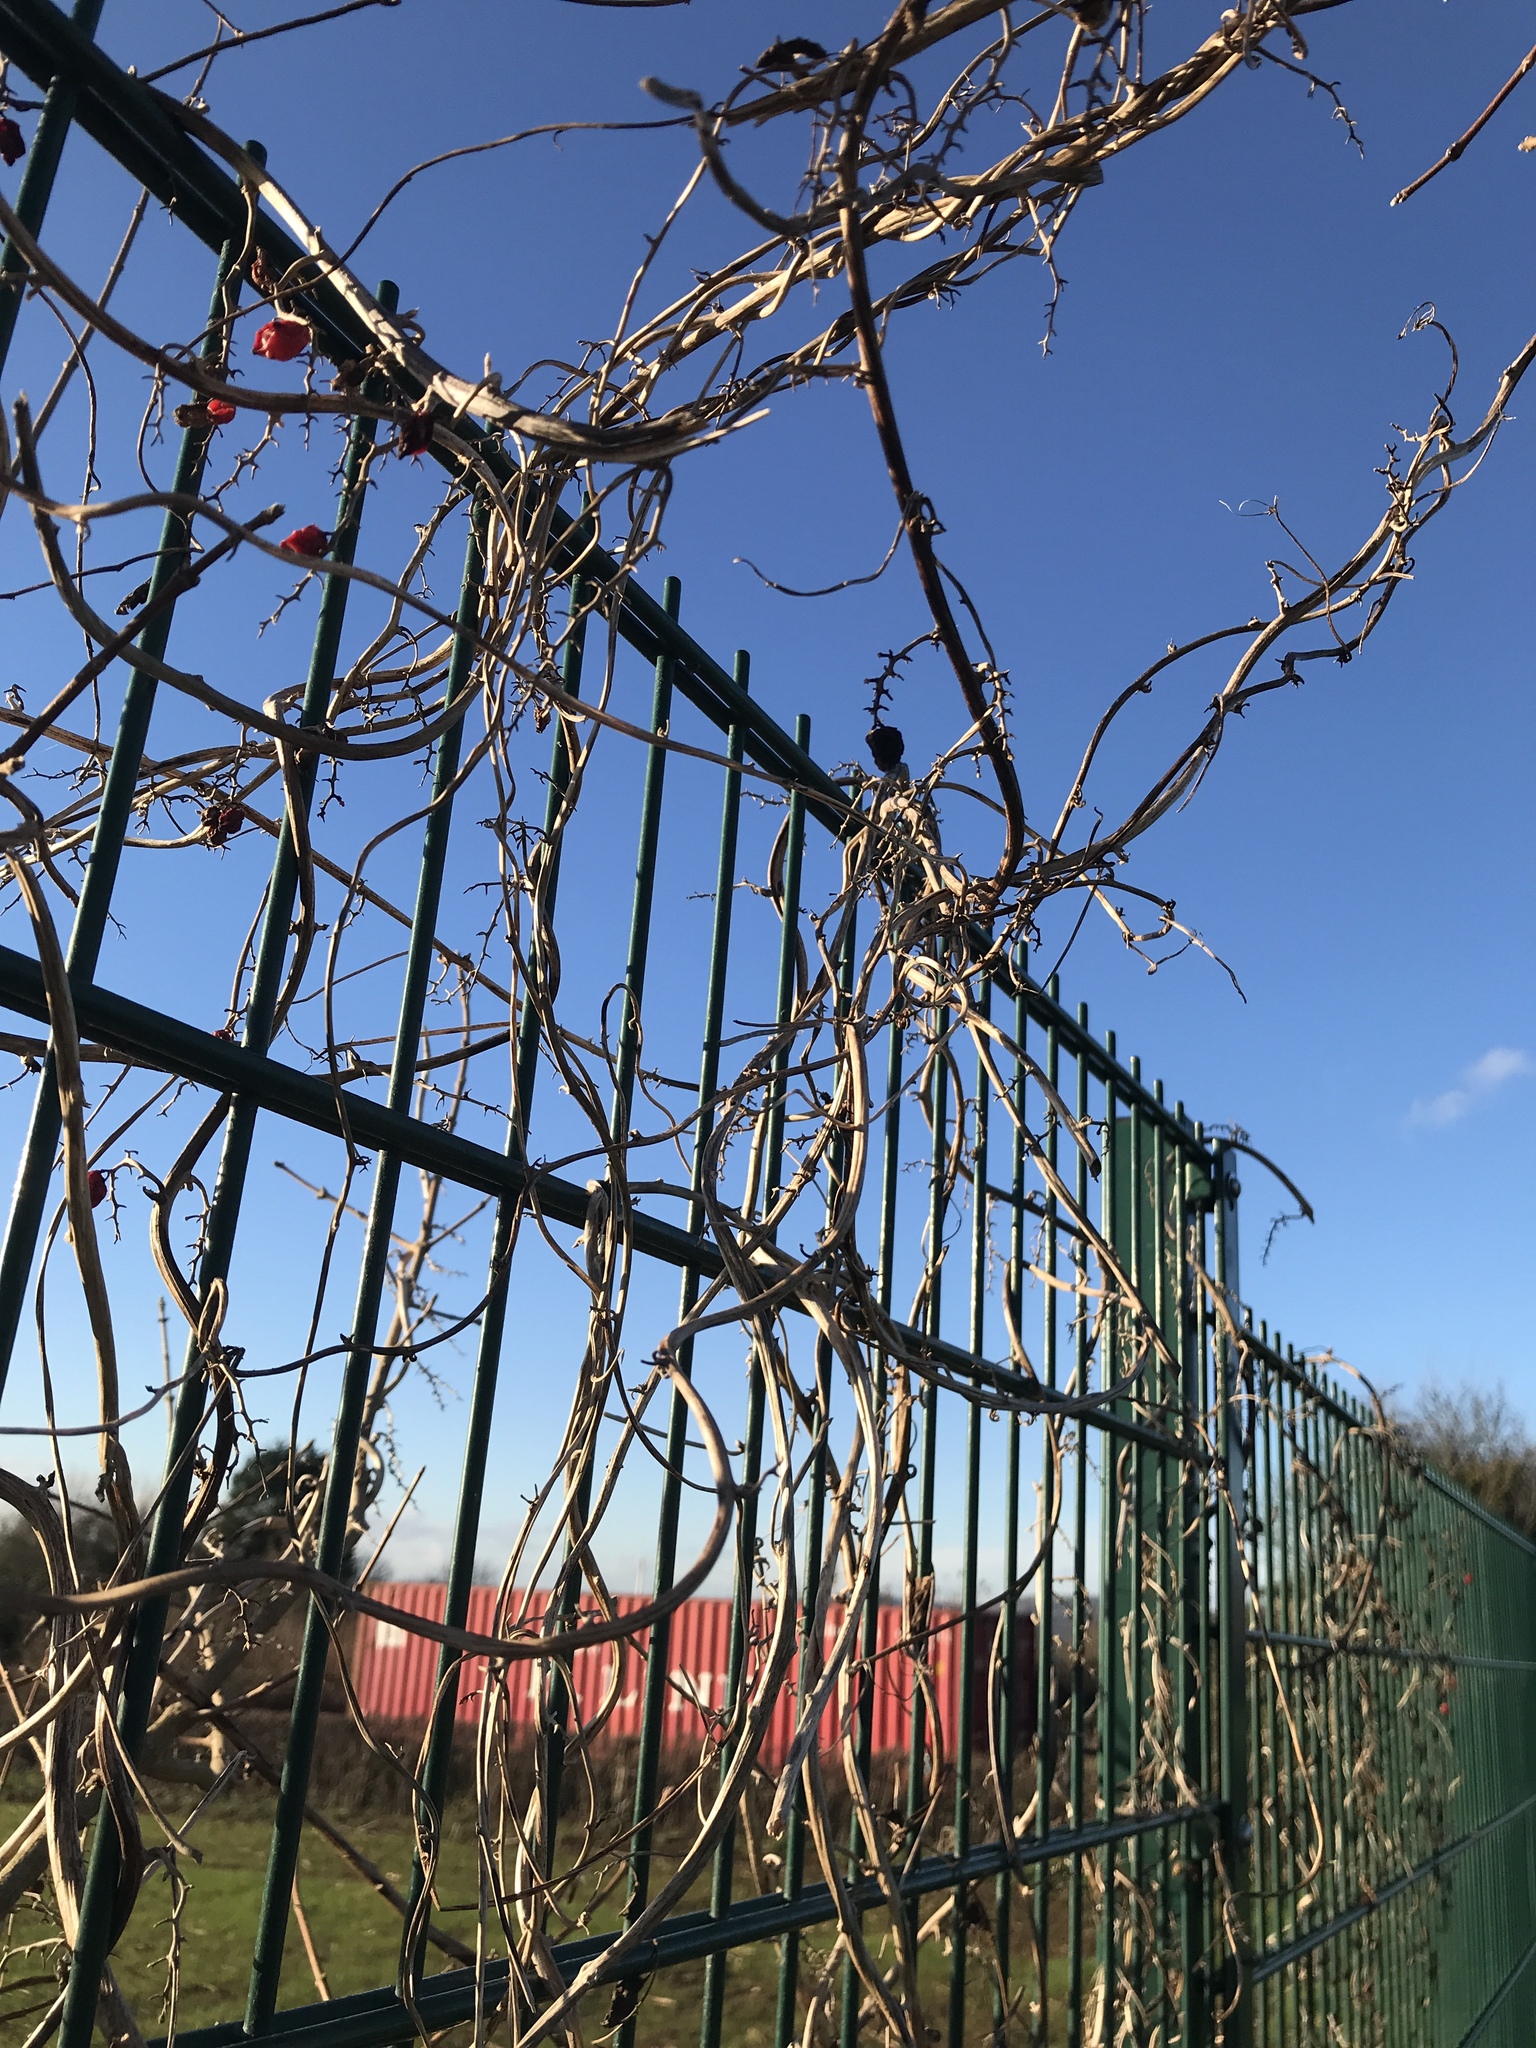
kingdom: Plantae
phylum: Tracheophyta
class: Liliopsida
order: Dioscoreales
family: Dioscoreaceae
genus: Dioscorea
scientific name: Dioscorea communis
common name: Black-bindweed
